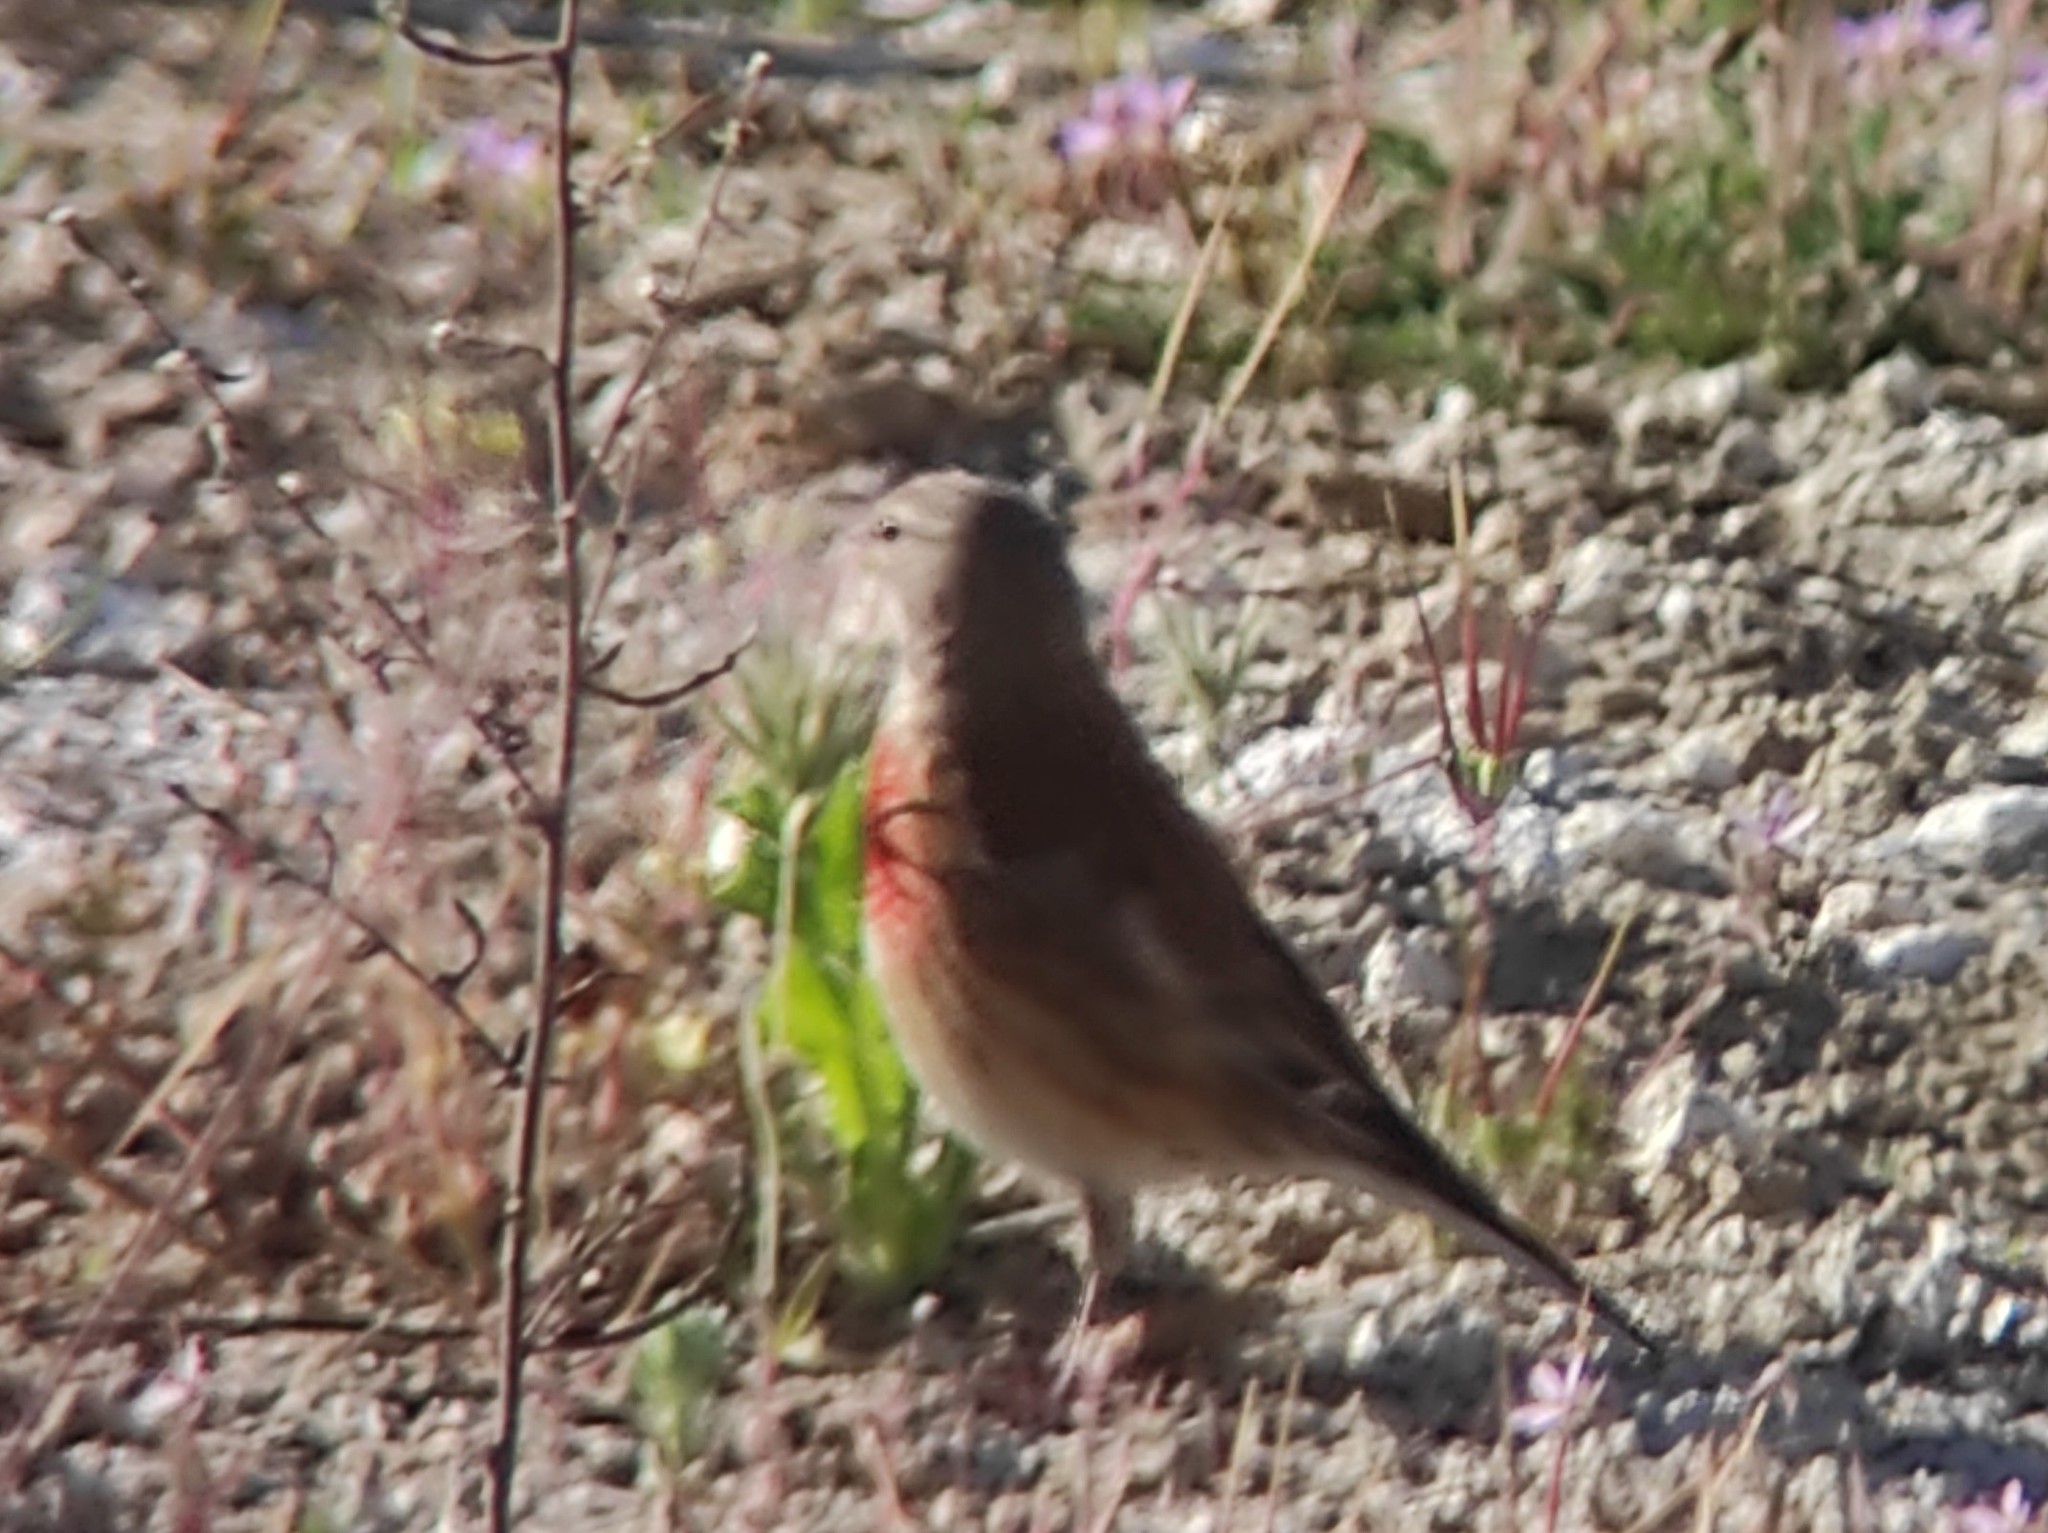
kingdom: Animalia
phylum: Chordata
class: Aves
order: Passeriformes
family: Fringillidae
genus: Linaria
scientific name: Linaria cannabina
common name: Common linnet
